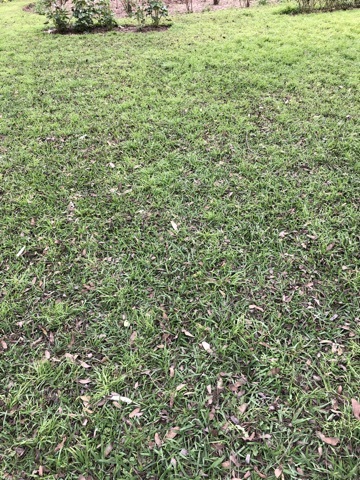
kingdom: Animalia
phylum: Chordata
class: Aves
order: Columbiformes
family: Columbidae
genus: Columba
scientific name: Columba livia
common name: Rock pigeon
